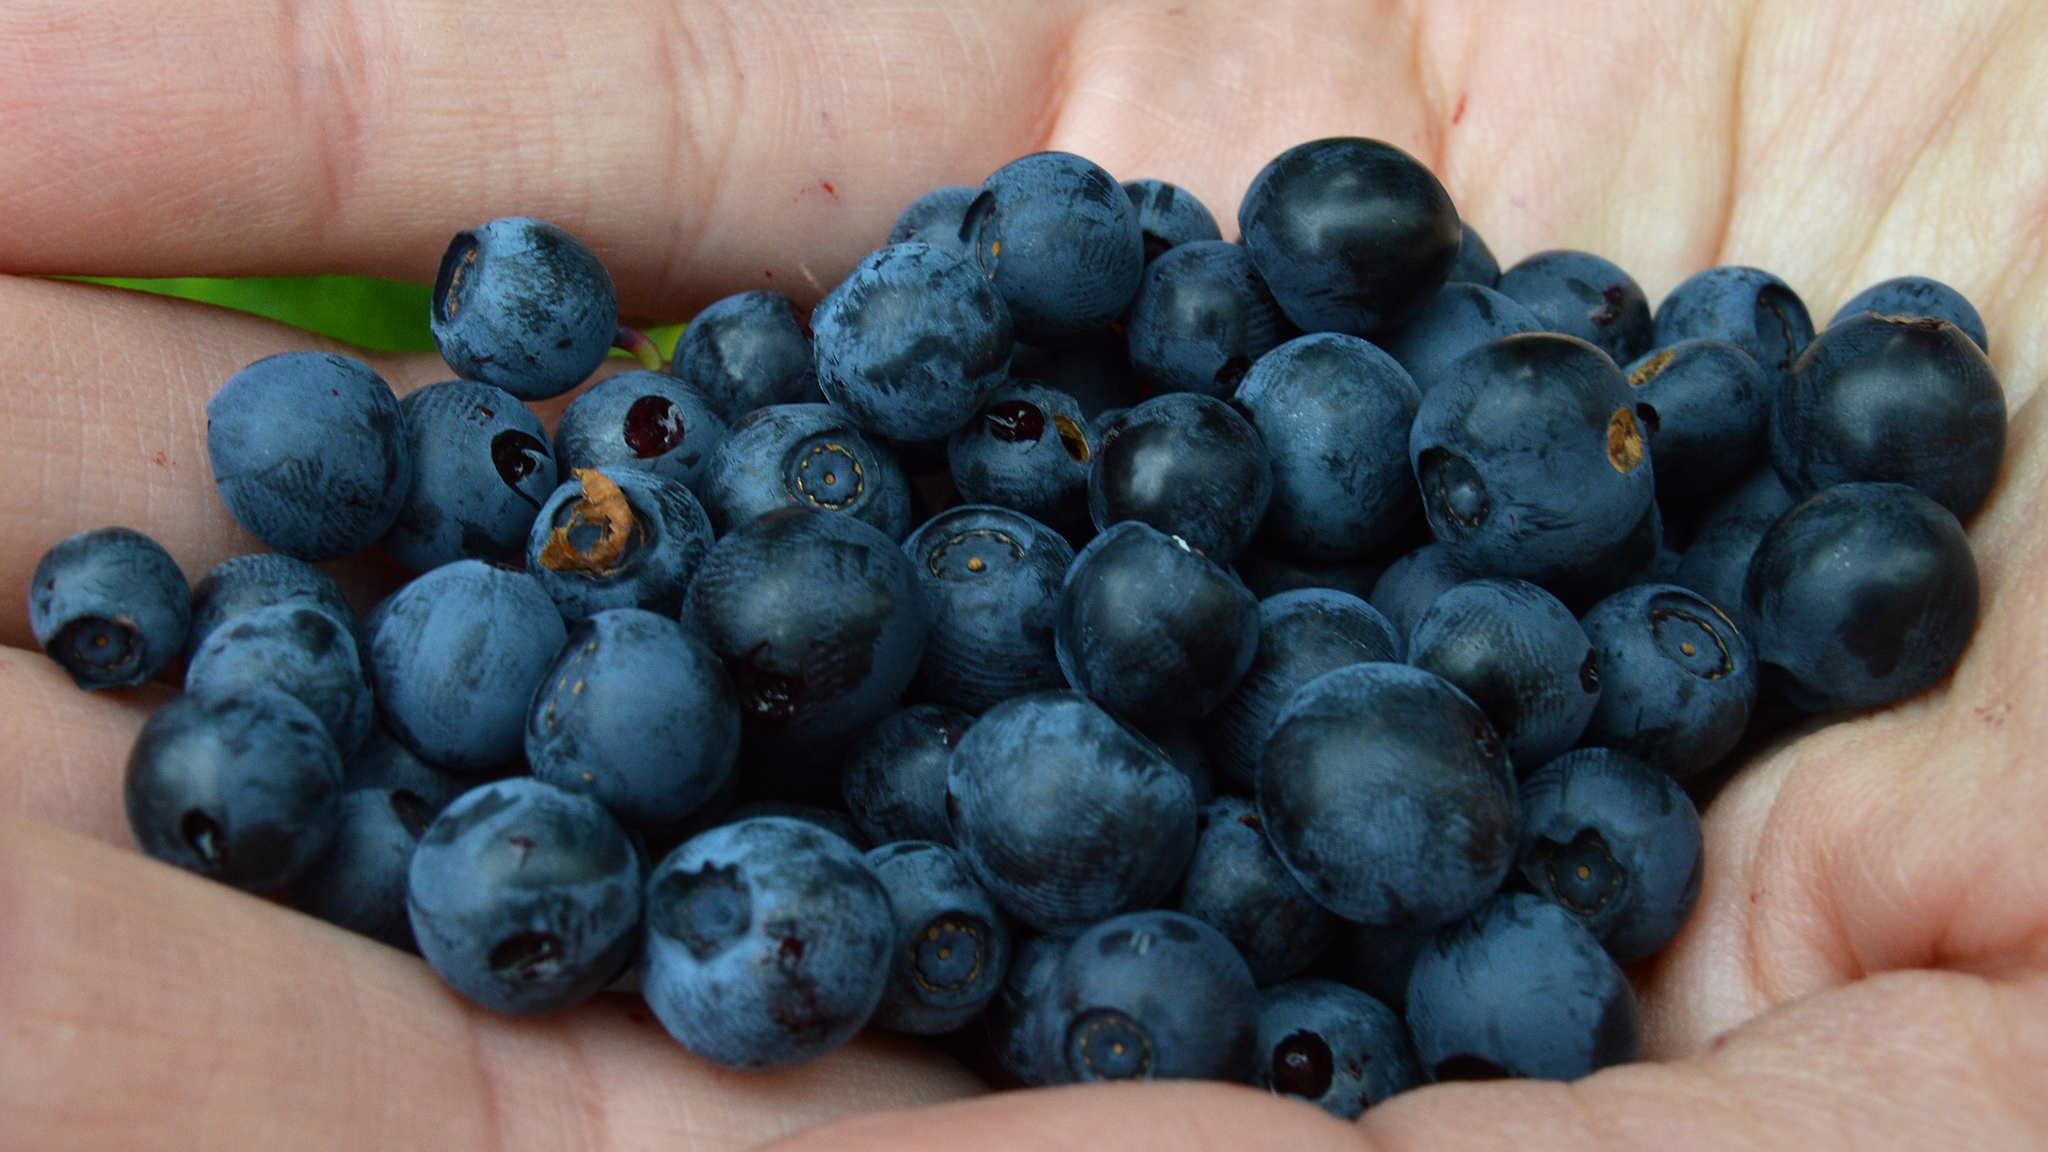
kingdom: Plantae
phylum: Tracheophyta
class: Magnoliopsida
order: Ericales
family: Ericaceae
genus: Vaccinium
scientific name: Vaccinium myrtillus
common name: Bilberry
